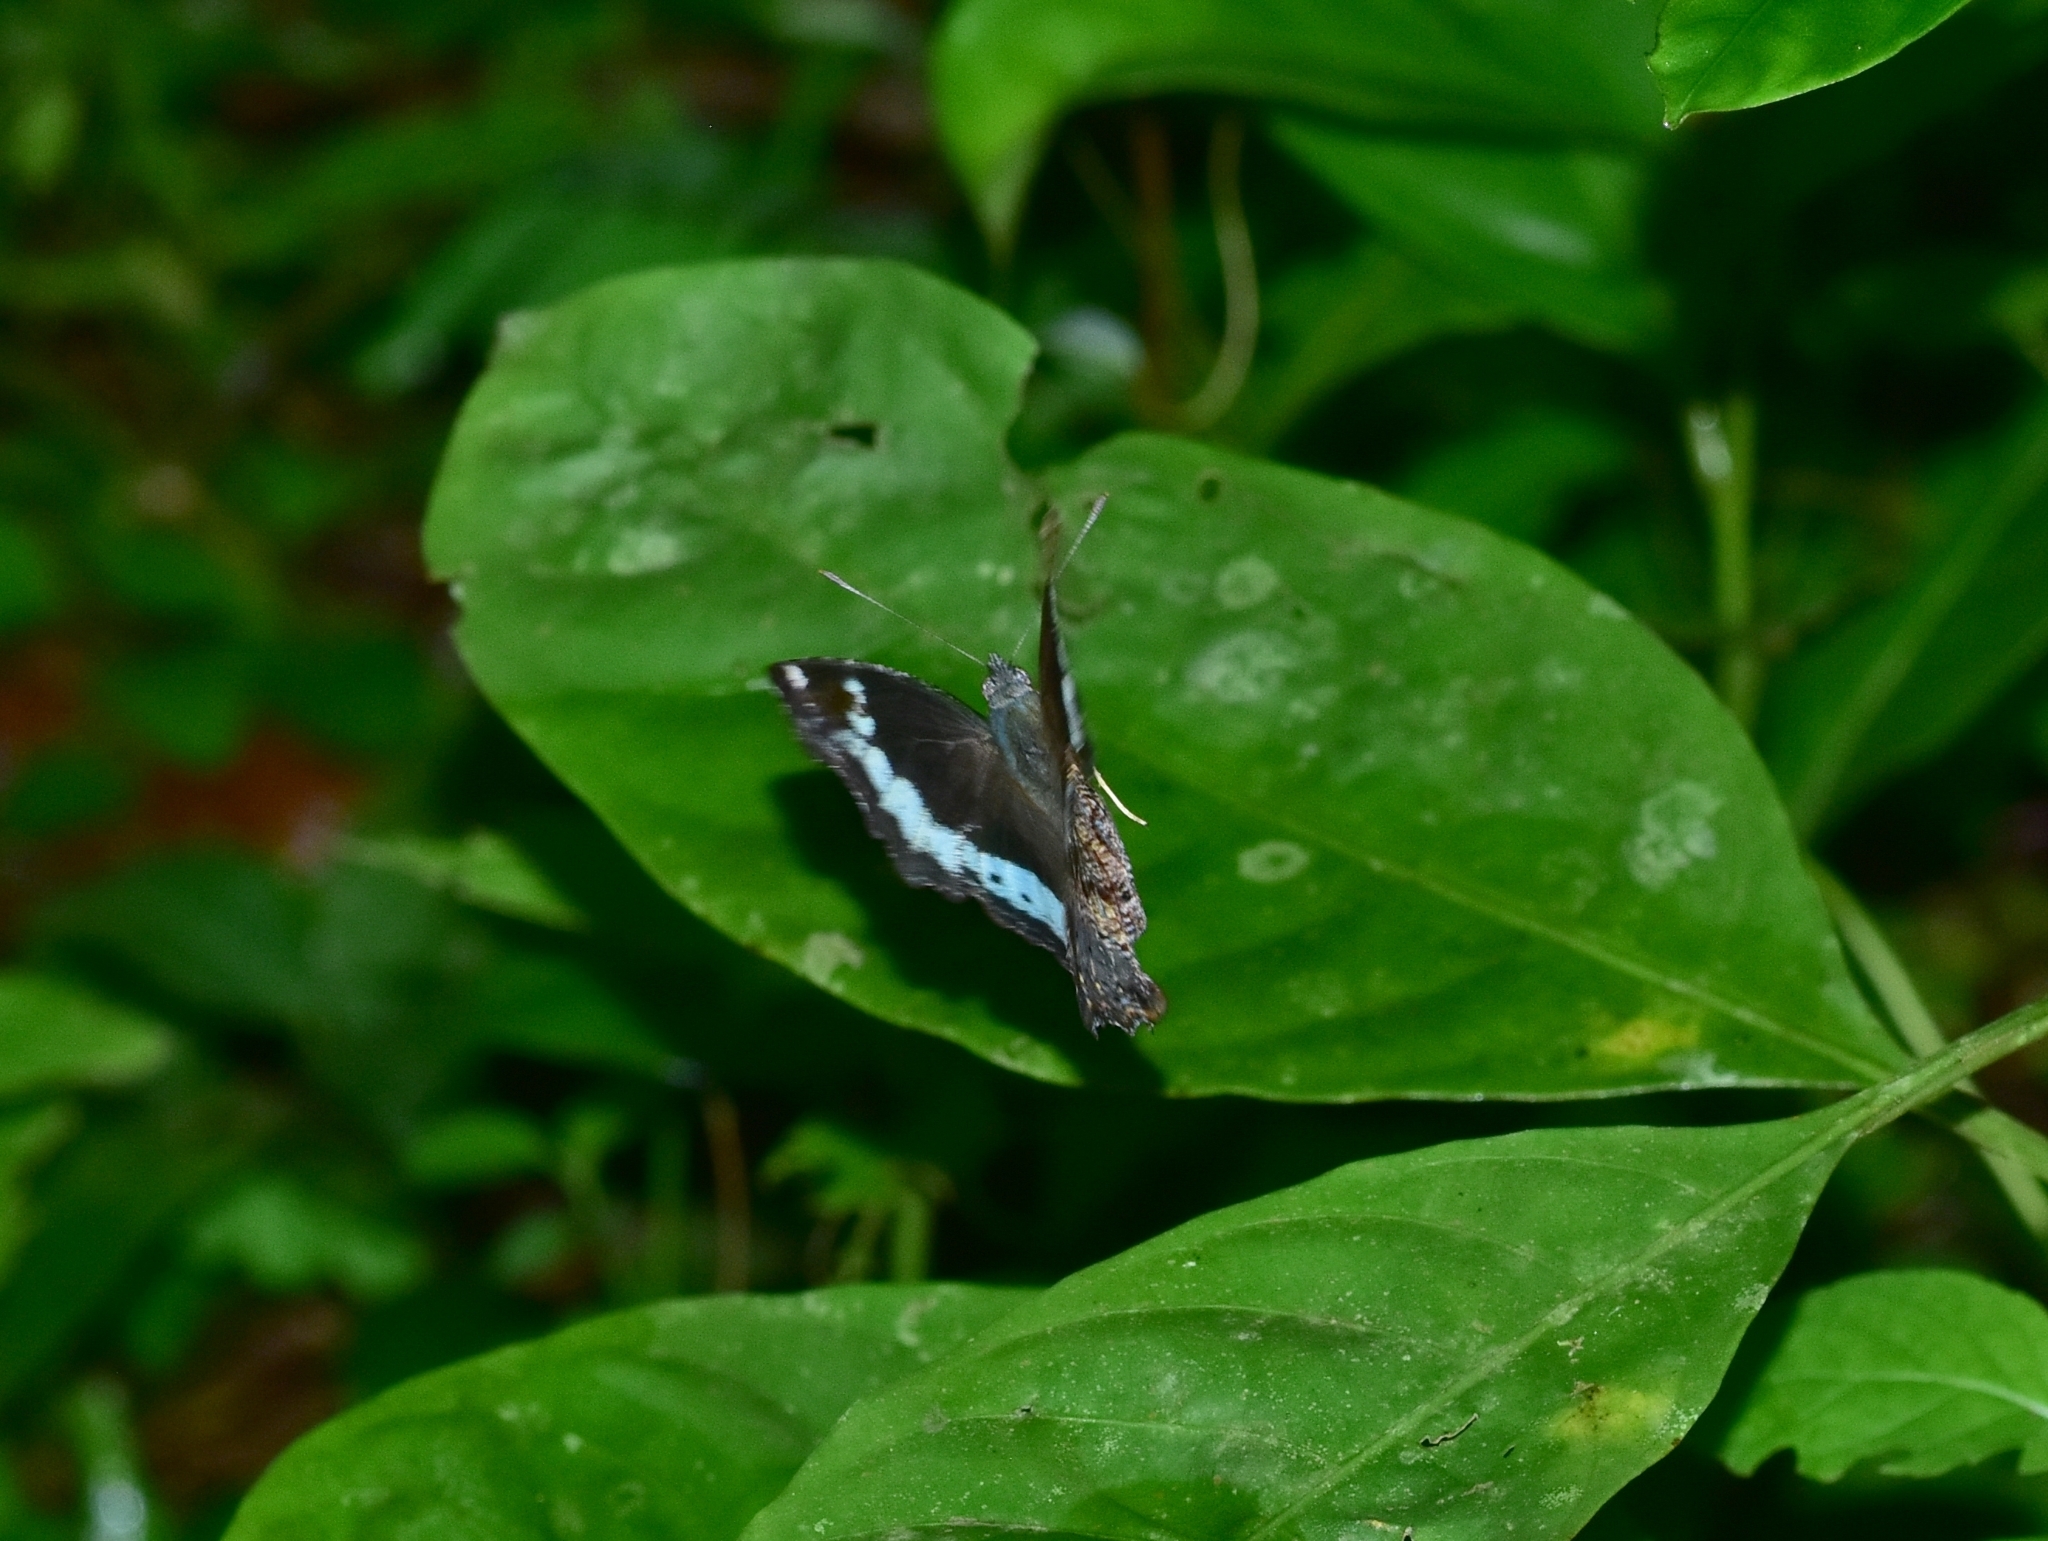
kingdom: Animalia
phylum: Arthropoda
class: Insecta
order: Lepidoptera
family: Nymphalidae
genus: Vanessa
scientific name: Vanessa Kaniska canace
